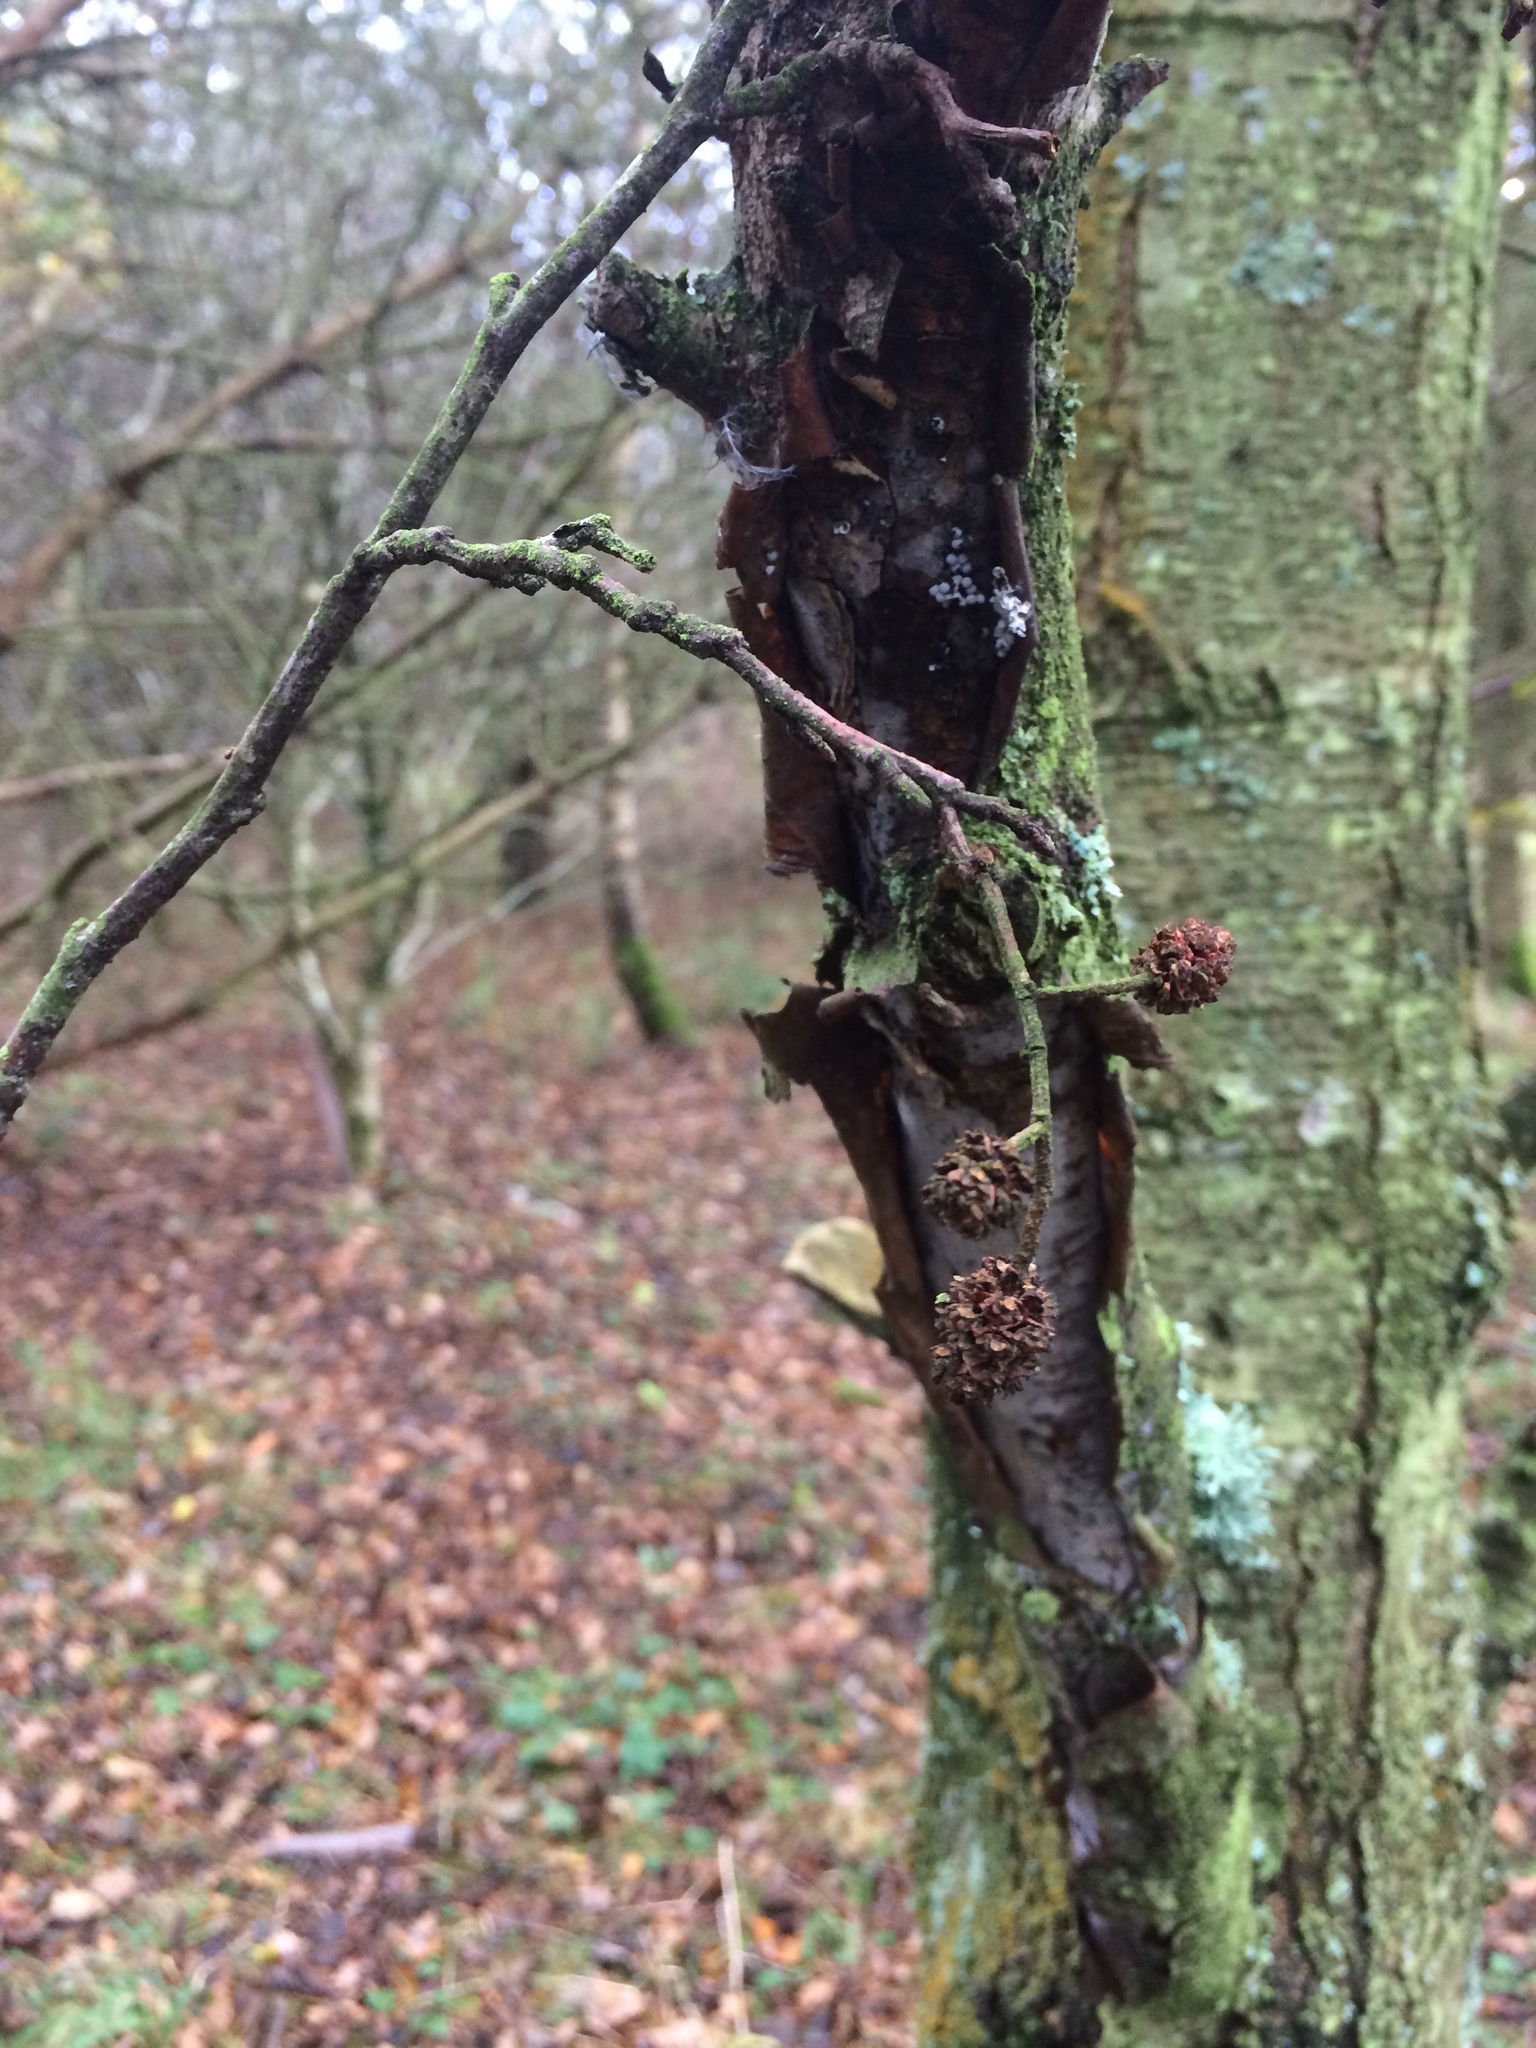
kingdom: Plantae
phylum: Tracheophyta
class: Magnoliopsida
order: Fagales
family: Betulaceae
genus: Alnus
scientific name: Alnus glutinosa
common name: Black alder
